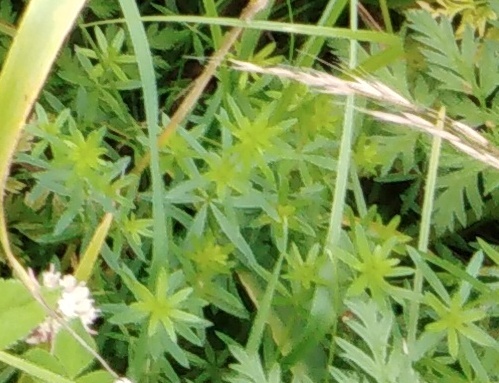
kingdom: Plantae
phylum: Tracheophyta
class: Magnoliopsida
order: Gentianales
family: Rubiaceae
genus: Galium
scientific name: Galium mollugo
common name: Hedge bedstraw
